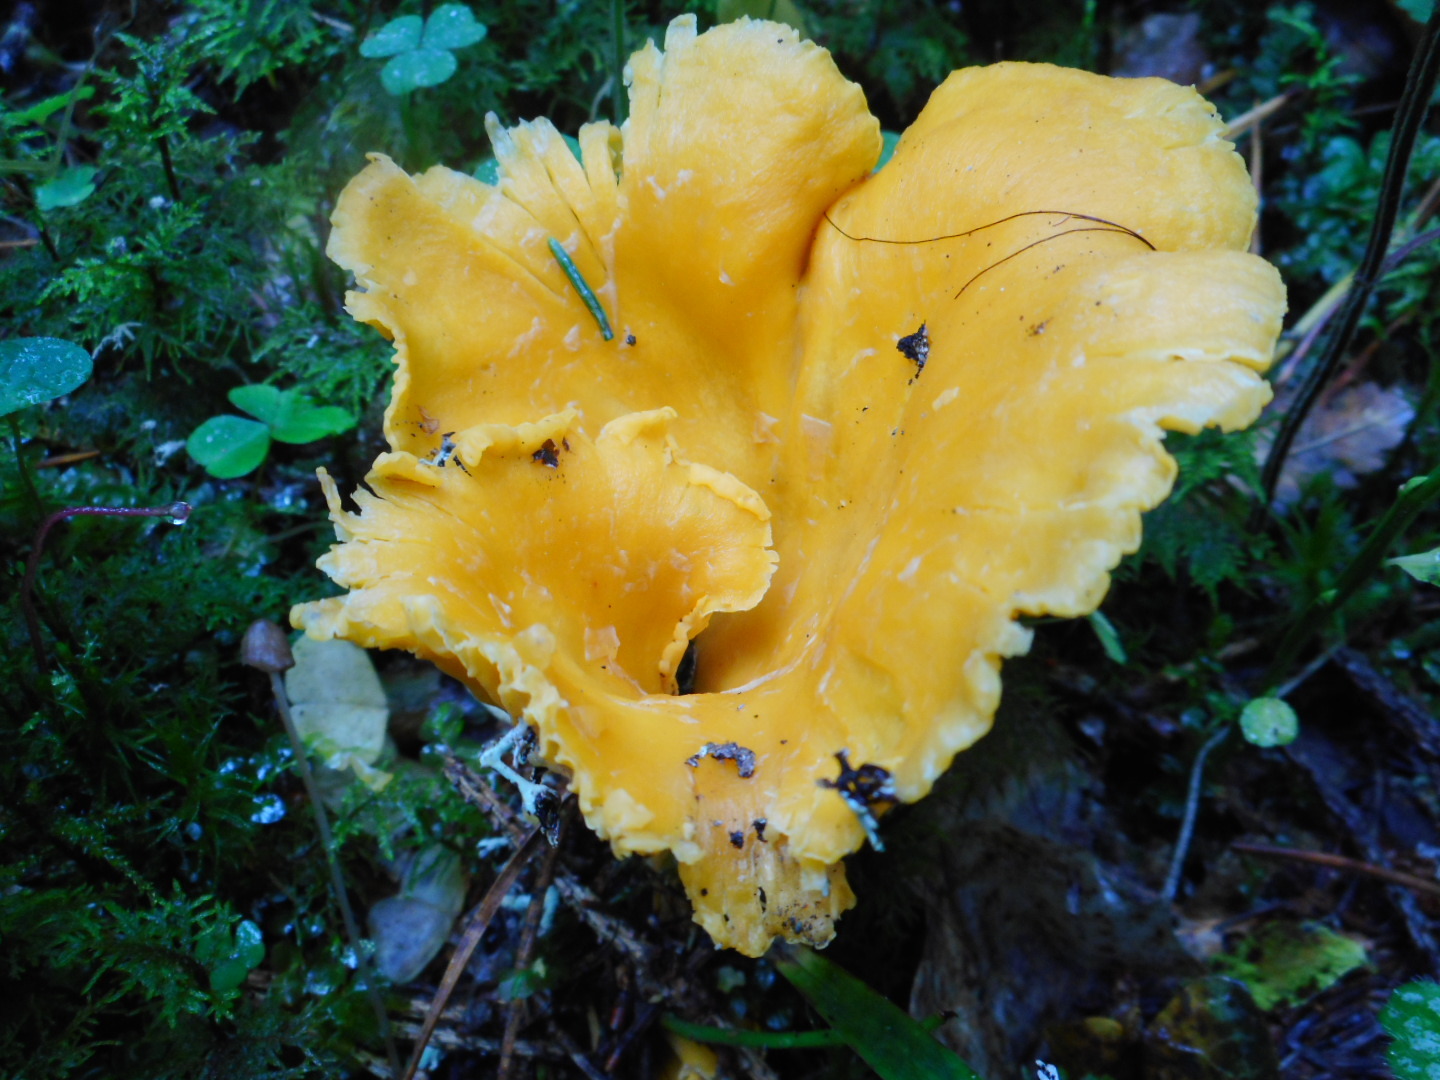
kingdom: Fungi
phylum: Basidiomycota
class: Agaricomycetes
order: Cantharellales
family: Hydnaceae
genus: Cantharellus
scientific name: Cantharellus cibarius
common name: Chanterelle
